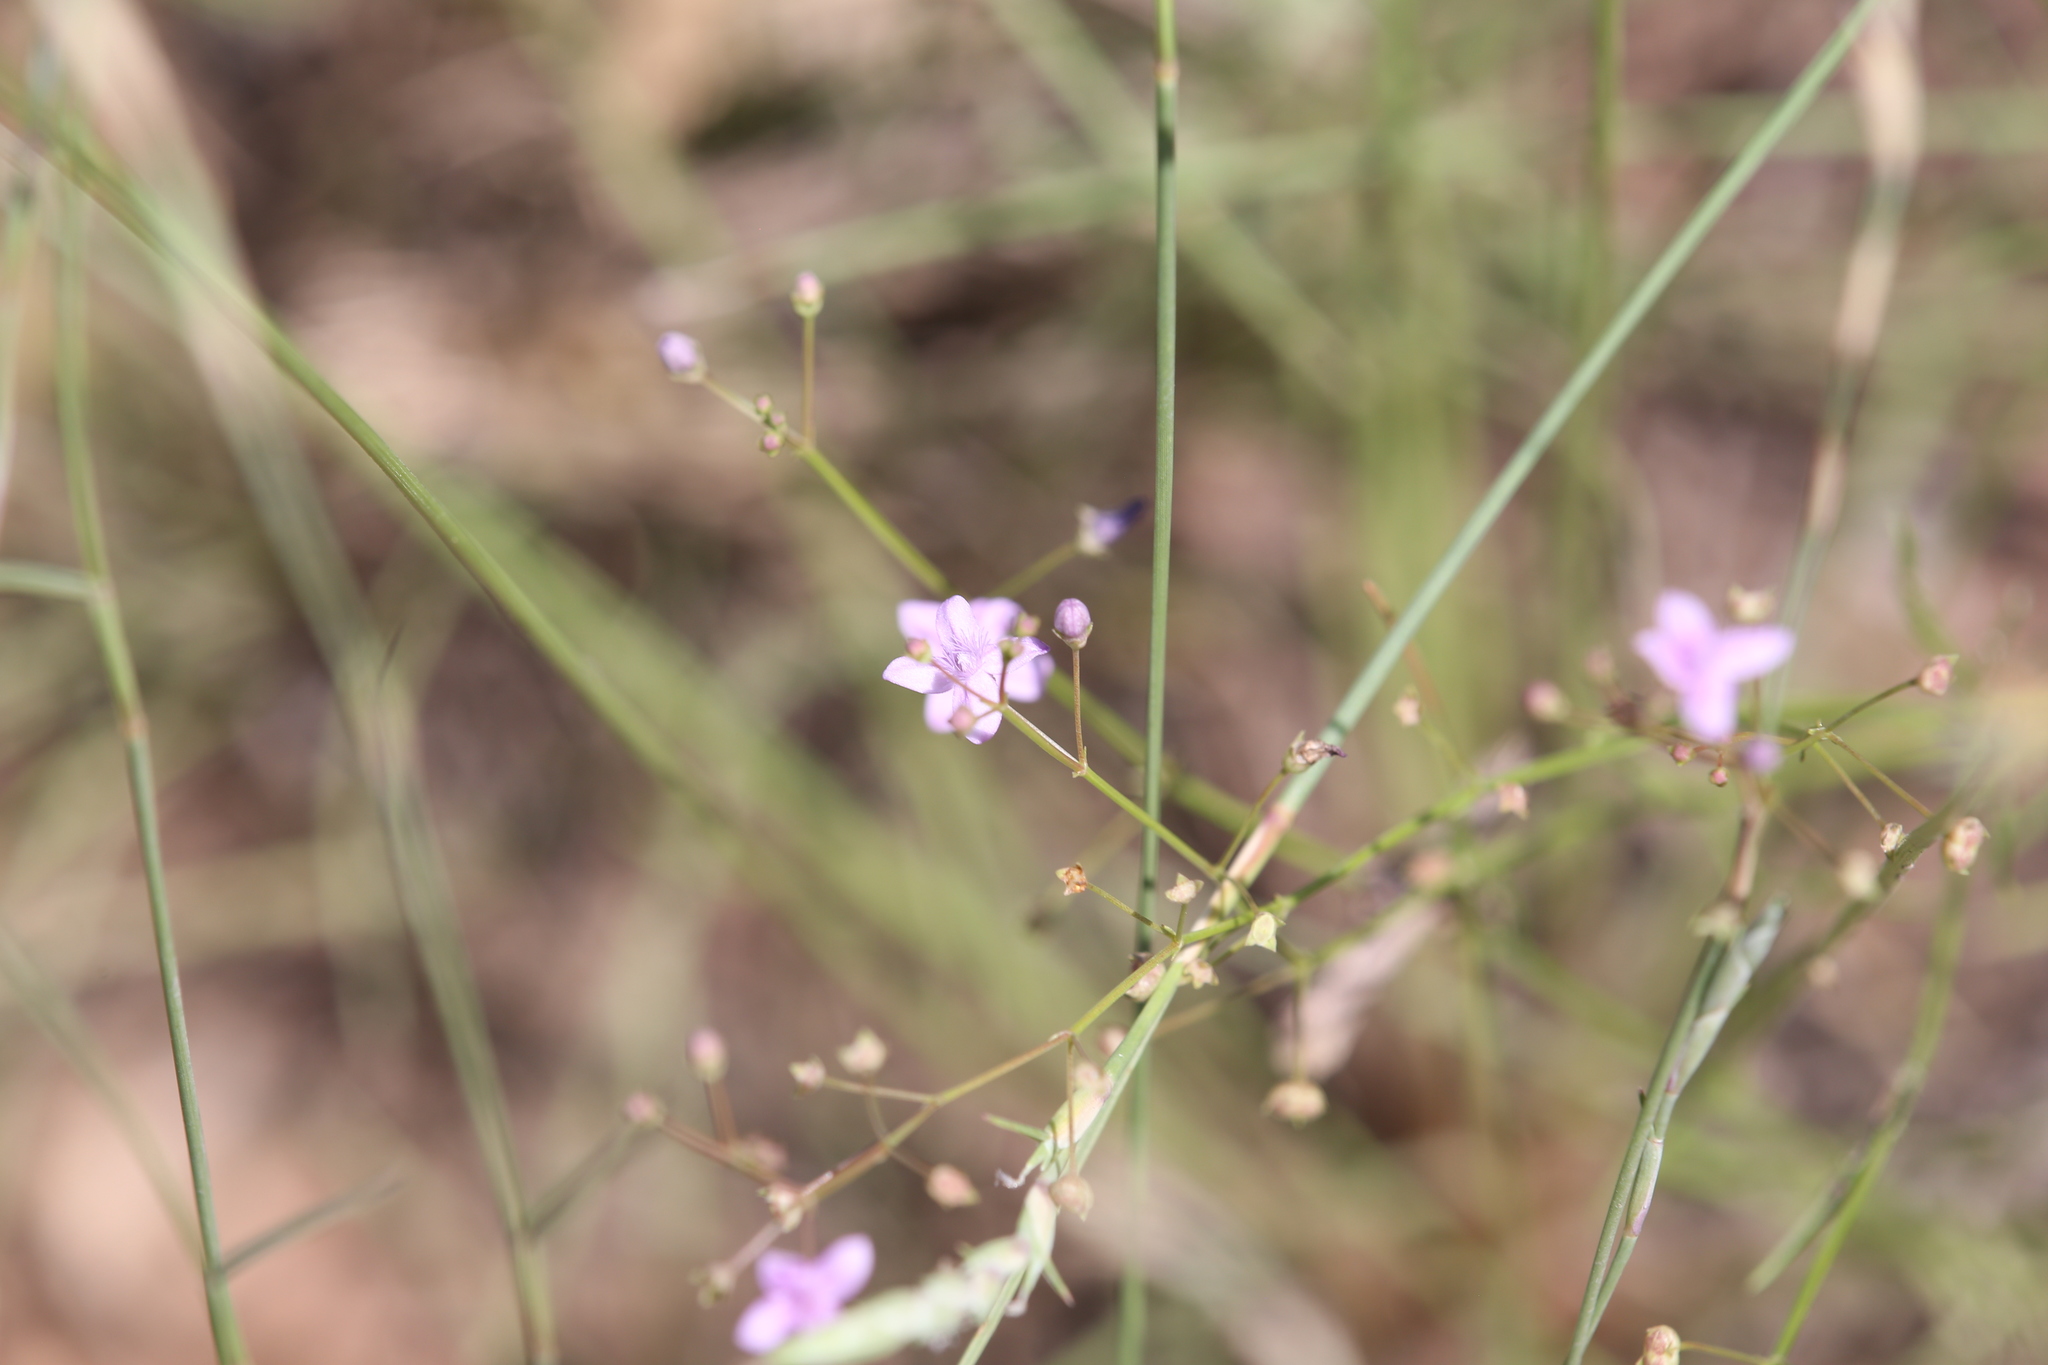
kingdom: Plantae
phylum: Tracheophyta
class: Liliopsida
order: Commelinales
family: Commelinaceae
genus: Murdannia
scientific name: Murdannia graminea
